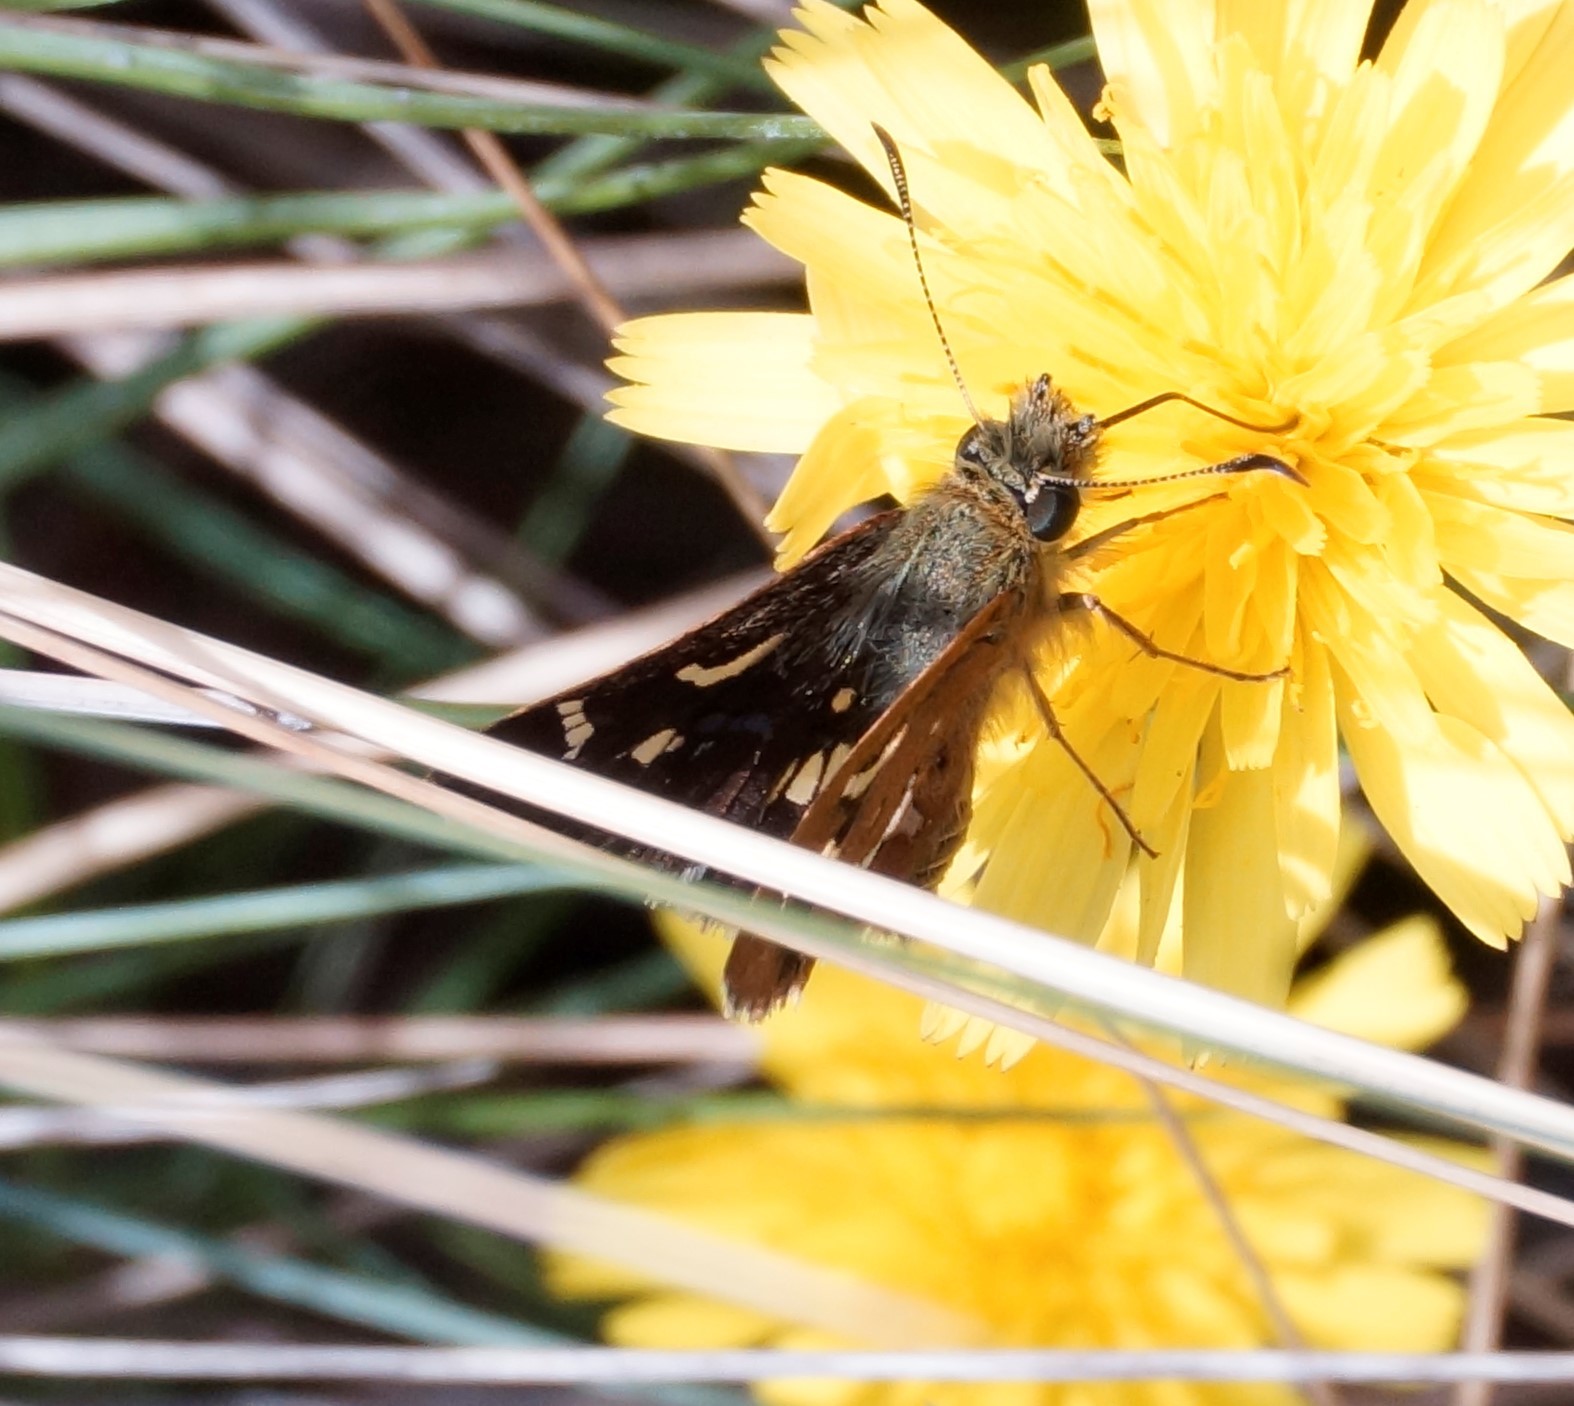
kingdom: Animalia
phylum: Arthropoda
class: Insecta
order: Lepidoptera
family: Hesperiidae
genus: Dispar
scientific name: Dispar compacta
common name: Barred skipper
